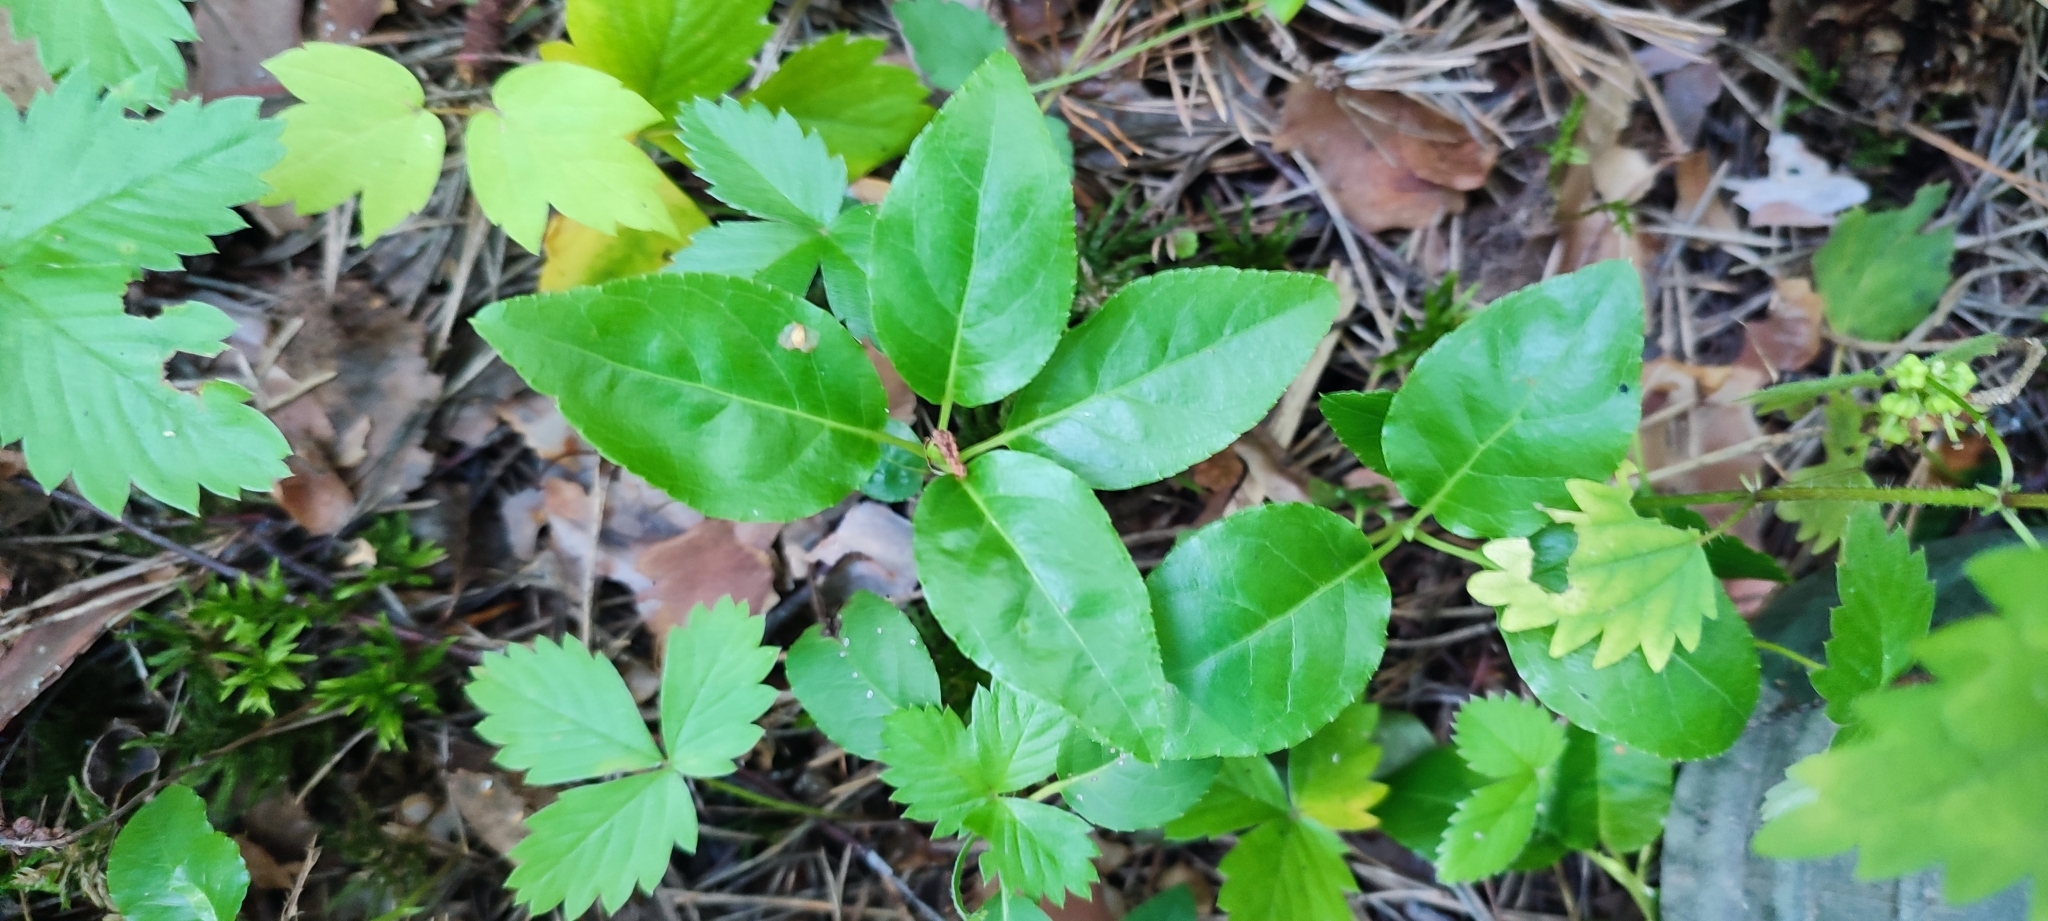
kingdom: Plantae
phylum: Tracheophyta
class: Magnoliopsida
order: Ericales
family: Ericaceae
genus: Orthilia
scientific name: Orthilia secunda
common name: One-sided orthilia
